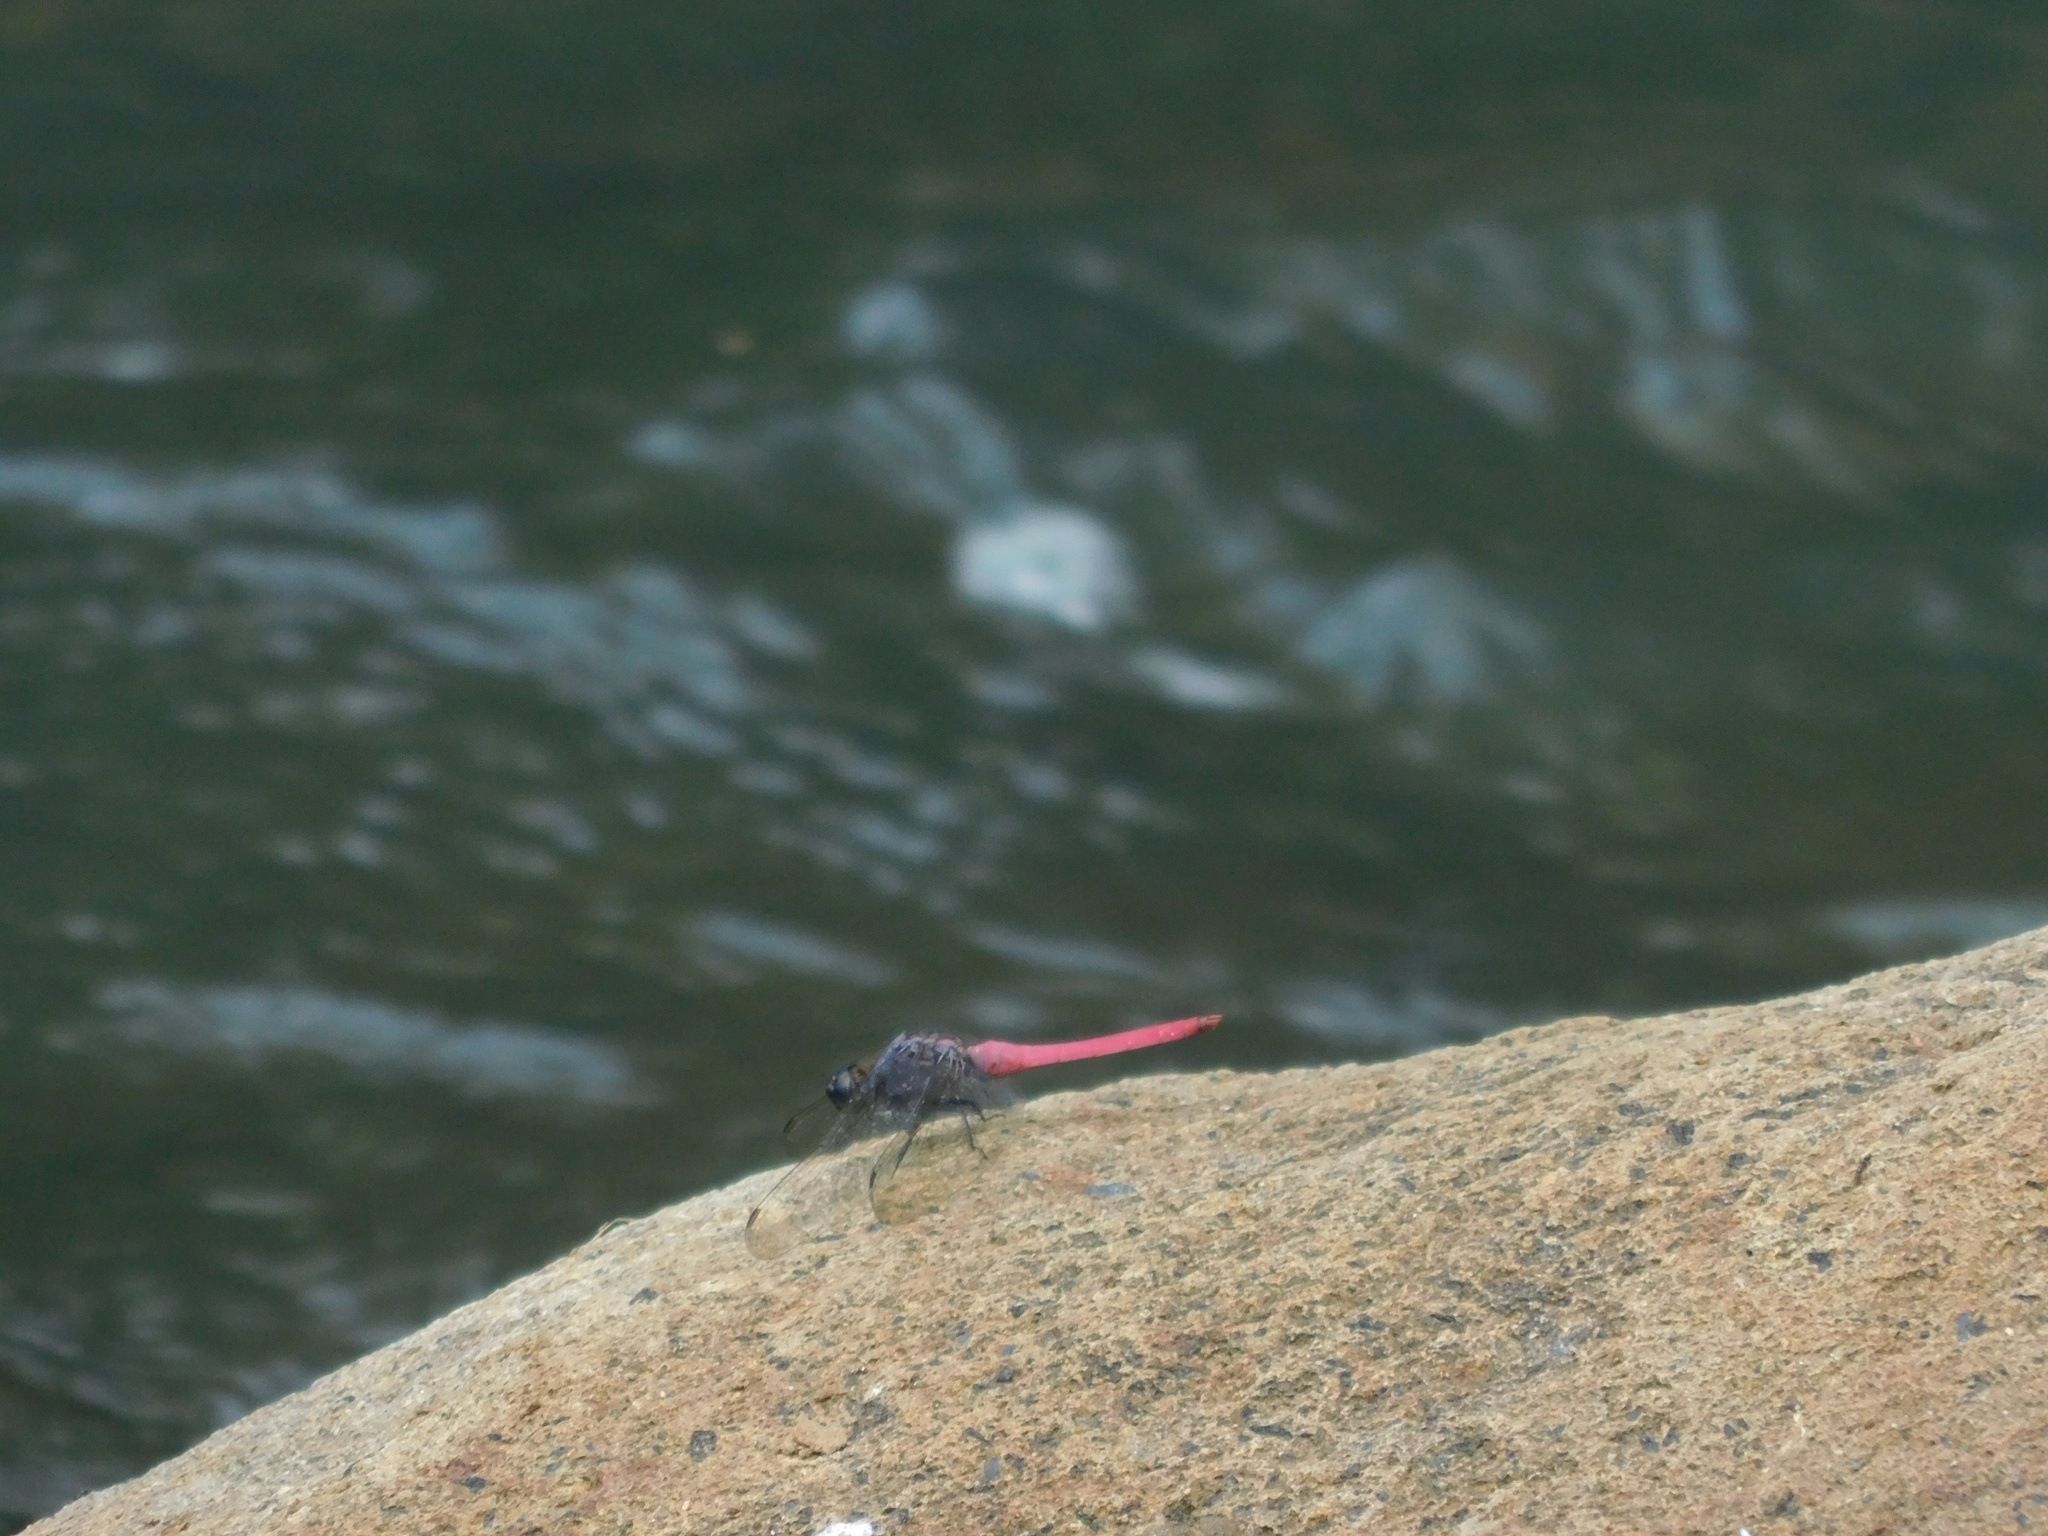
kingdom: Animalia
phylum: Arthropoda
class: Insecta
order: Odonata
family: Libellulidae
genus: Orthetrum
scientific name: Orthetrum pruinosum
